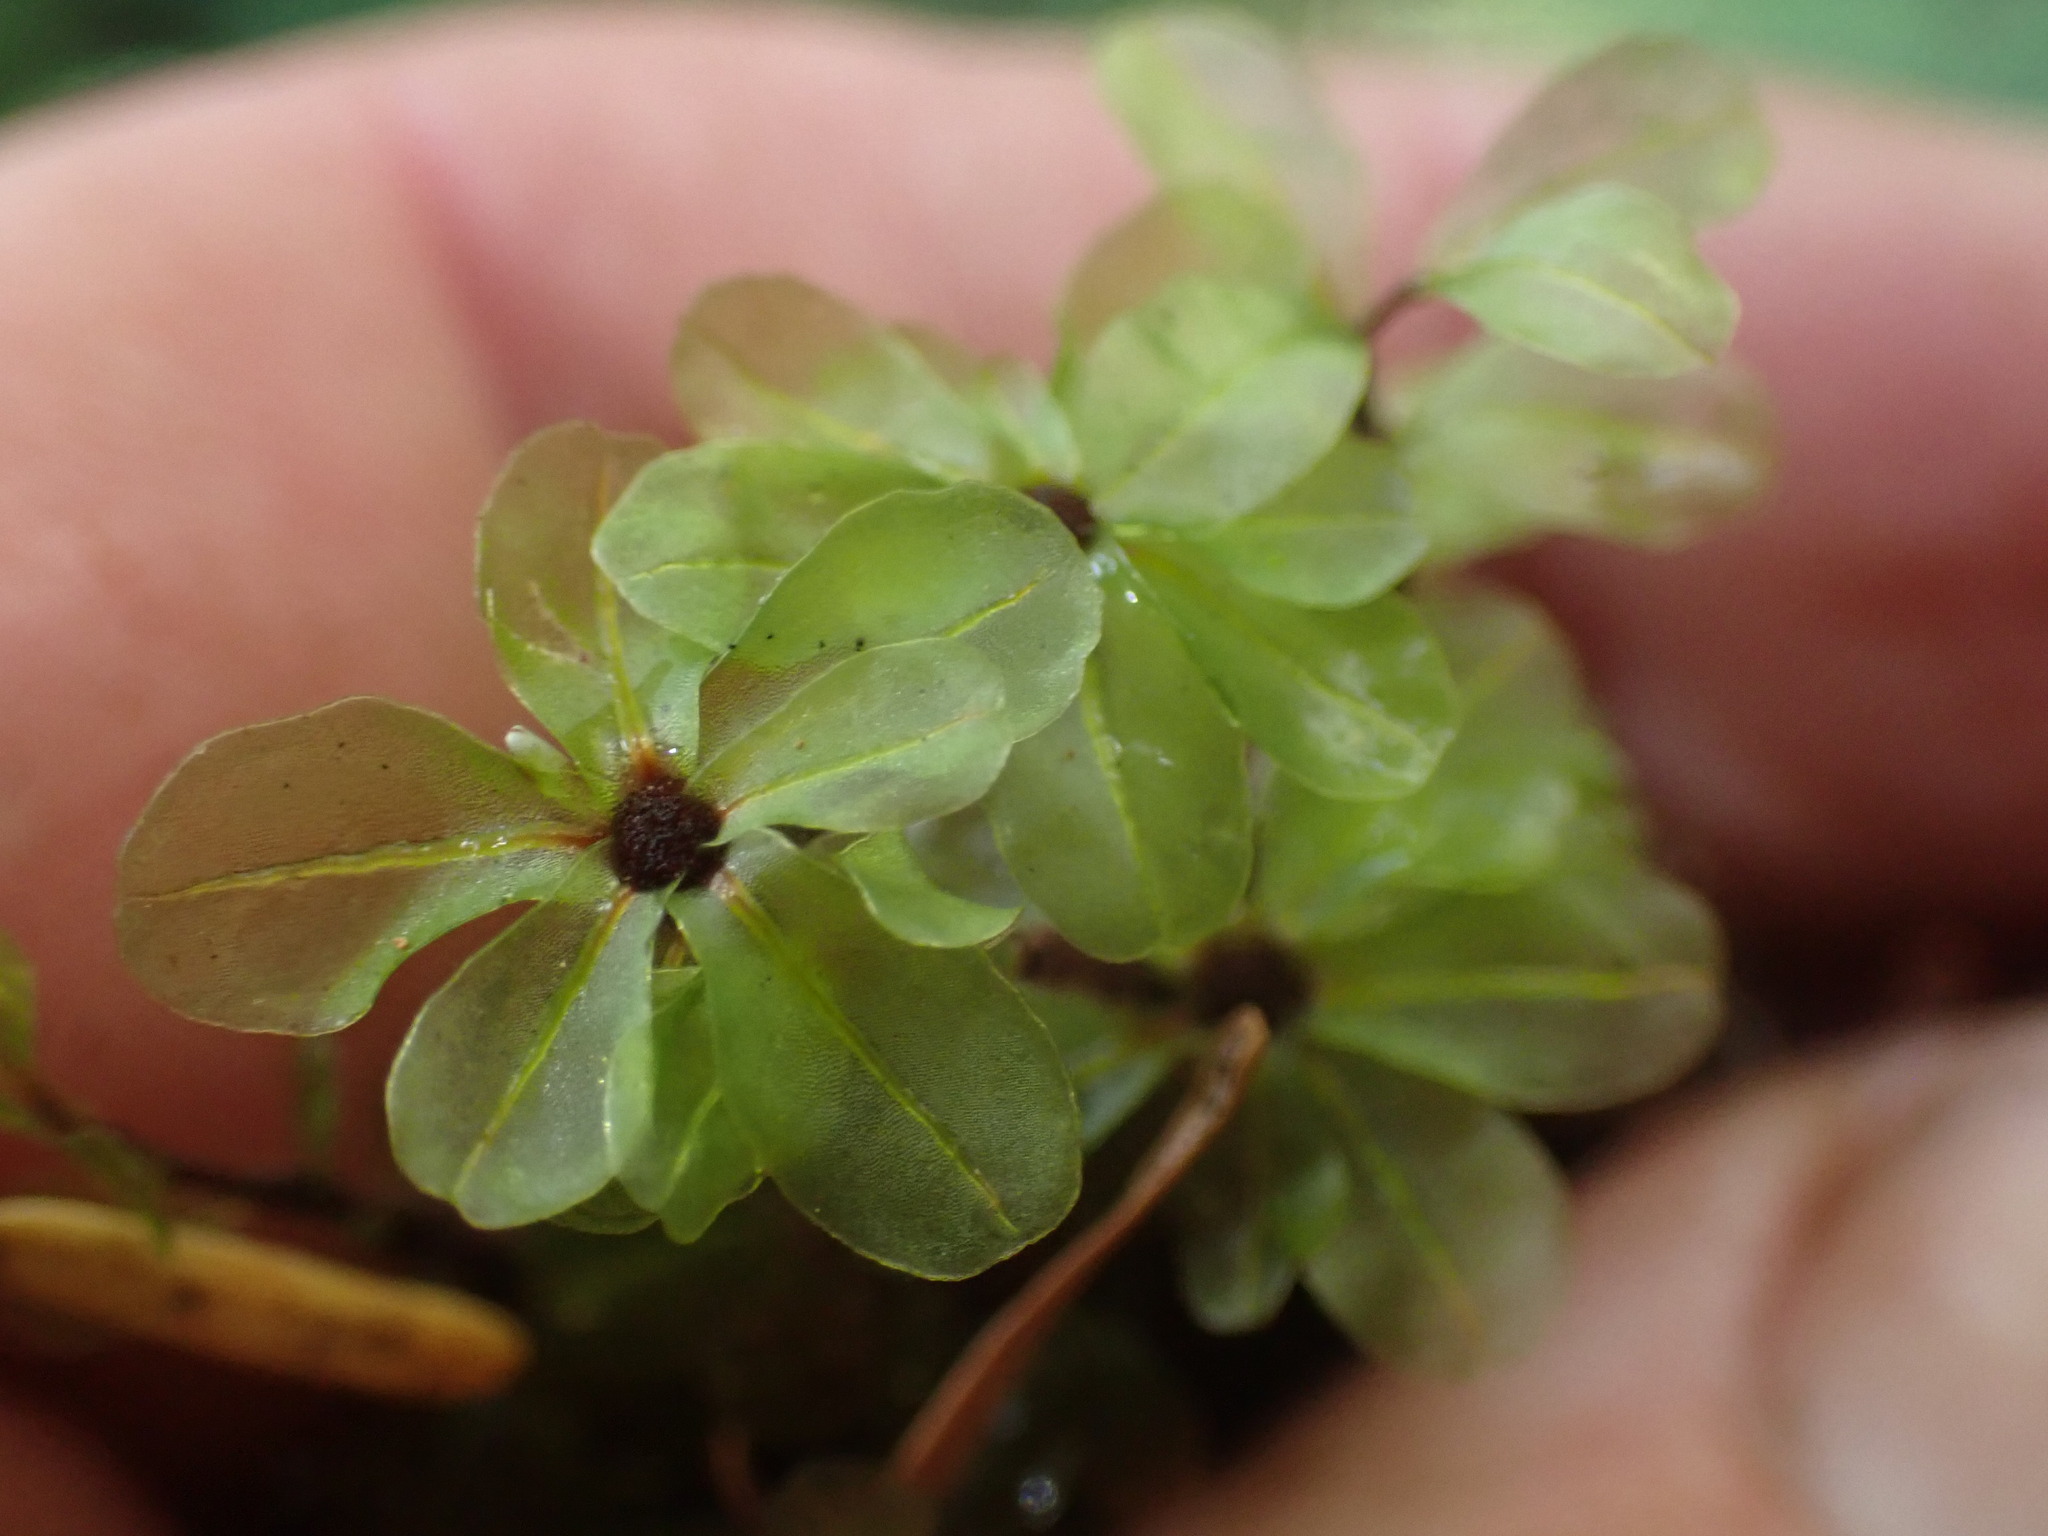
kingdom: Plantae
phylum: Bryophyta
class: Bryopsida
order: Bryales
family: Mniaceae
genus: Rhizomnium
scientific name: Rhizomnium magnifolium
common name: Large-leaved leafy moss
